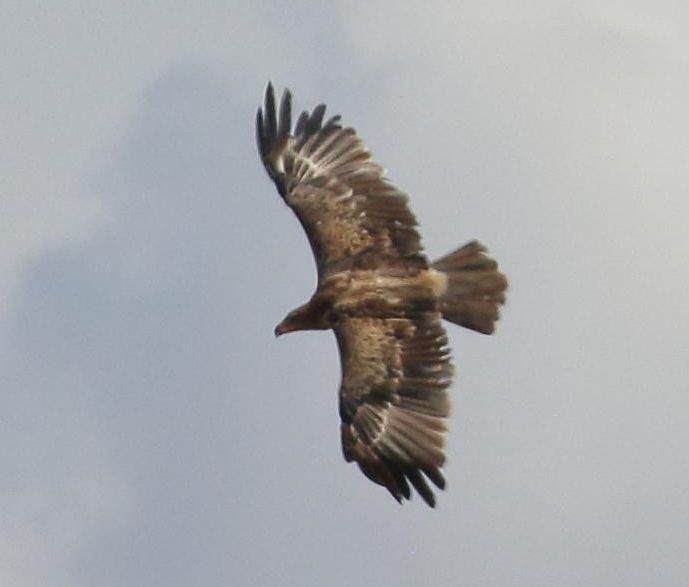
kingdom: Animalia
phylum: Chordata
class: Aves
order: Accipitriformes
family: Accipitridae
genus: Aquila
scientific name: Aquila rapax
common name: Tawny eagle
